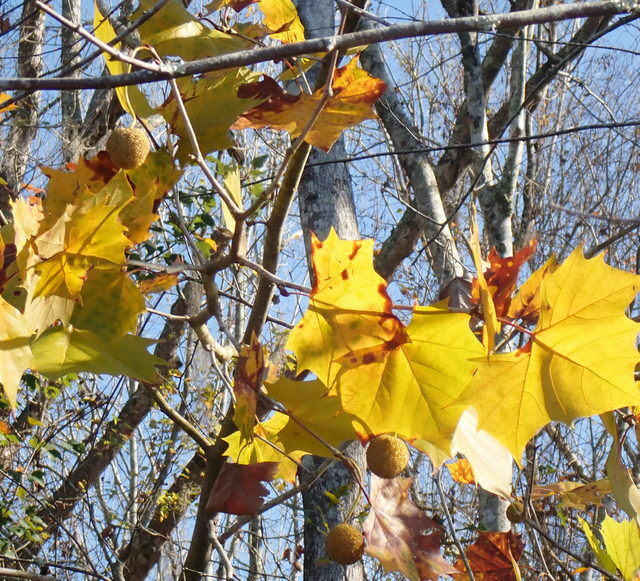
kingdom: Plantae
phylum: Tracheophyta
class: Magnoliopsida
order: Proteales
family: Platanaceae
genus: Platanus
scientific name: Platanus occidentalis
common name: American sycamore
